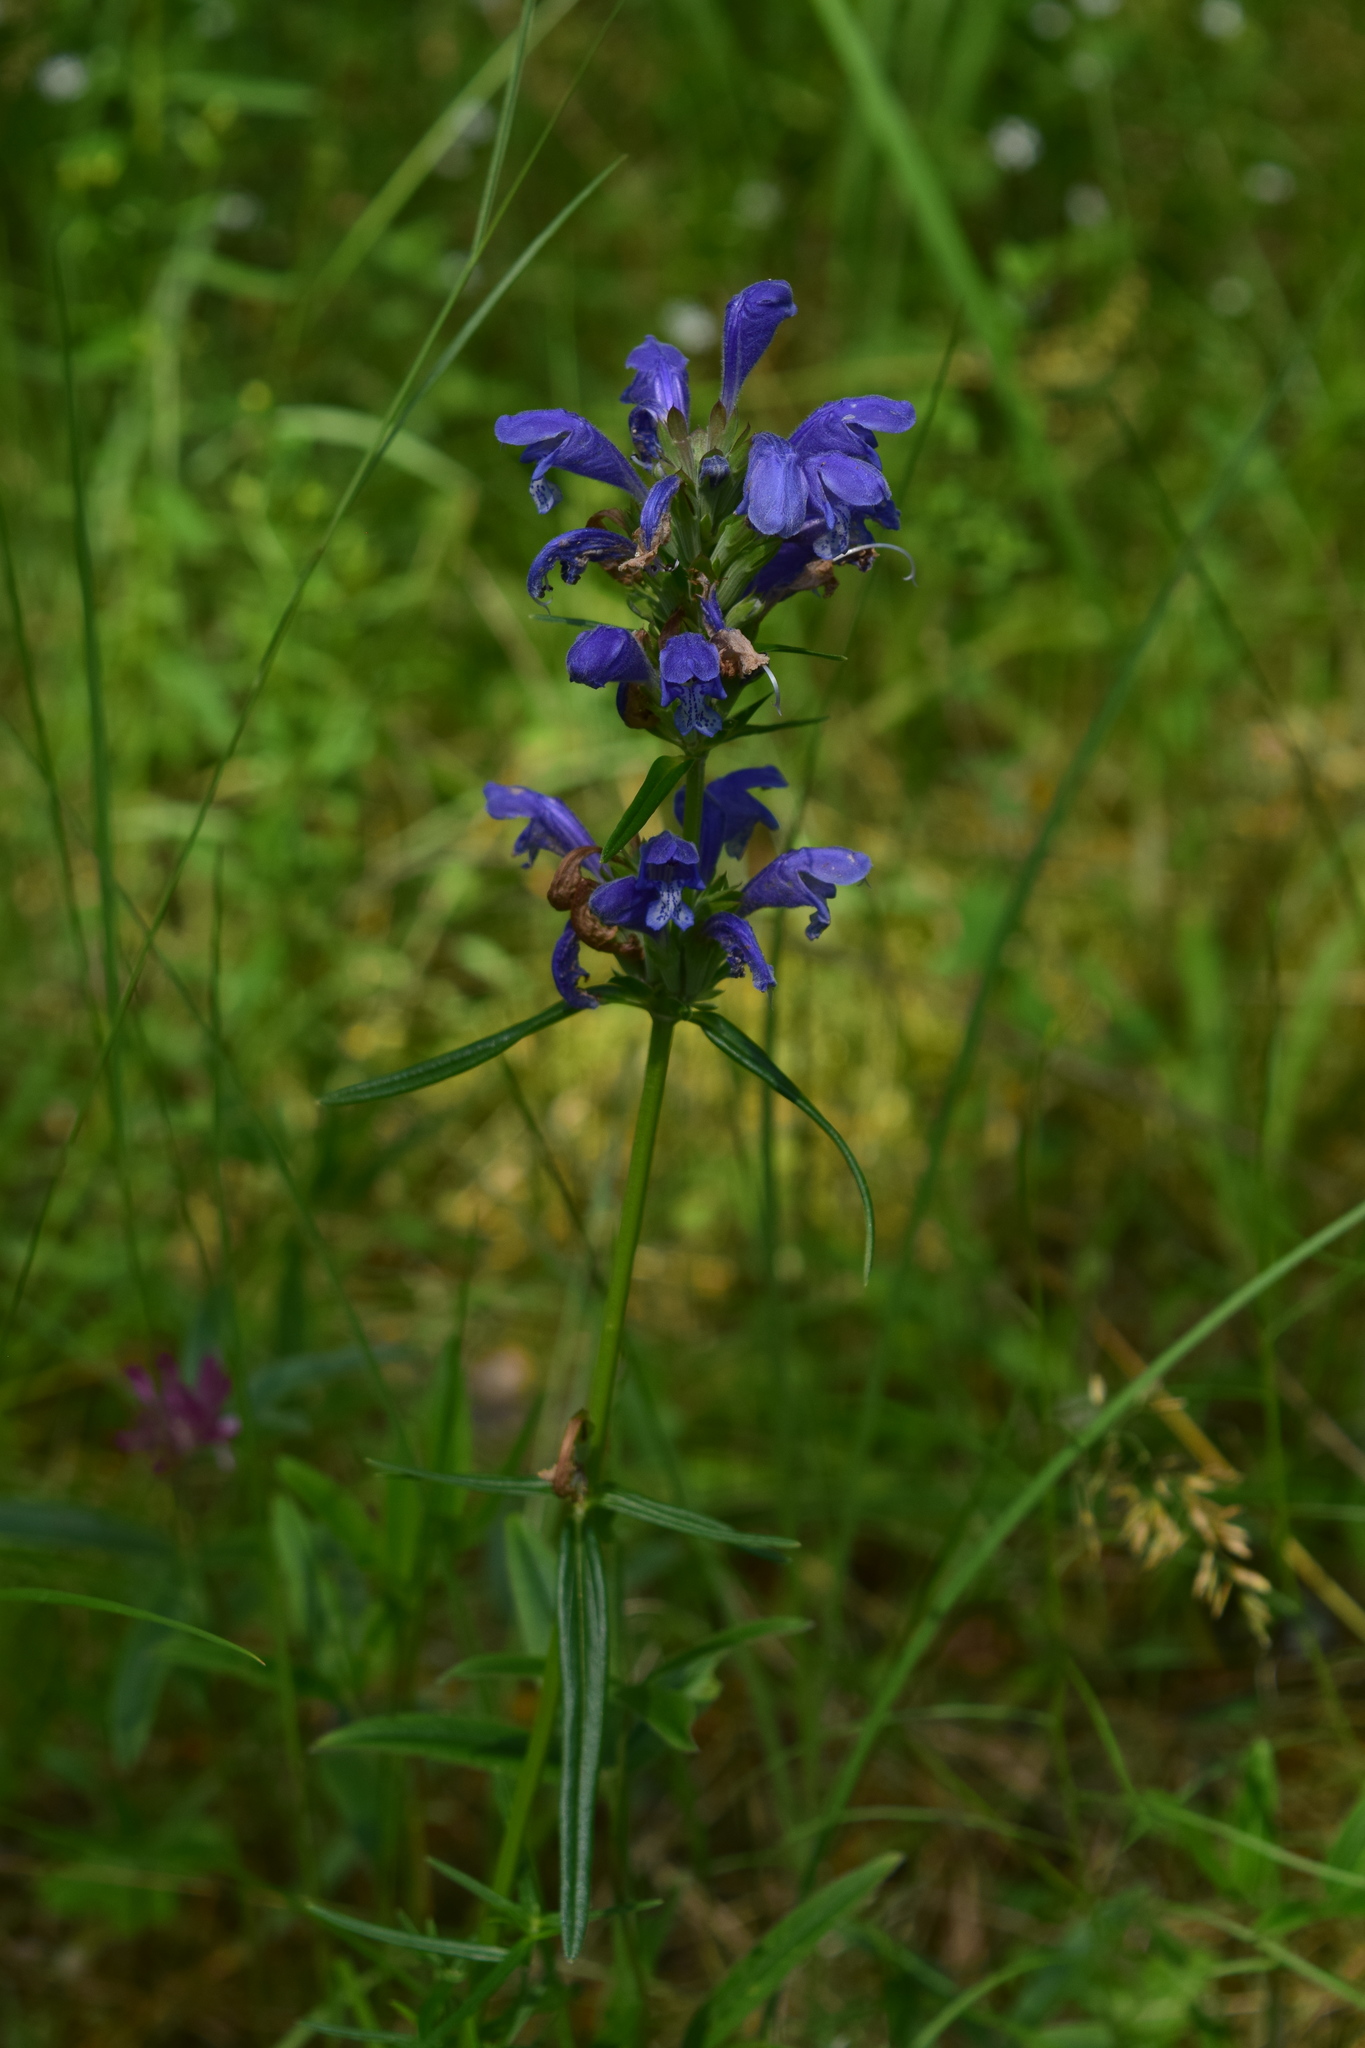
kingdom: Plantae
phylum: Tracheophyta
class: Magnoliopsida
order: Lamiales
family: Lamiaceae
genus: Dracocephalum
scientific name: Dracocephalum ruyschiana
